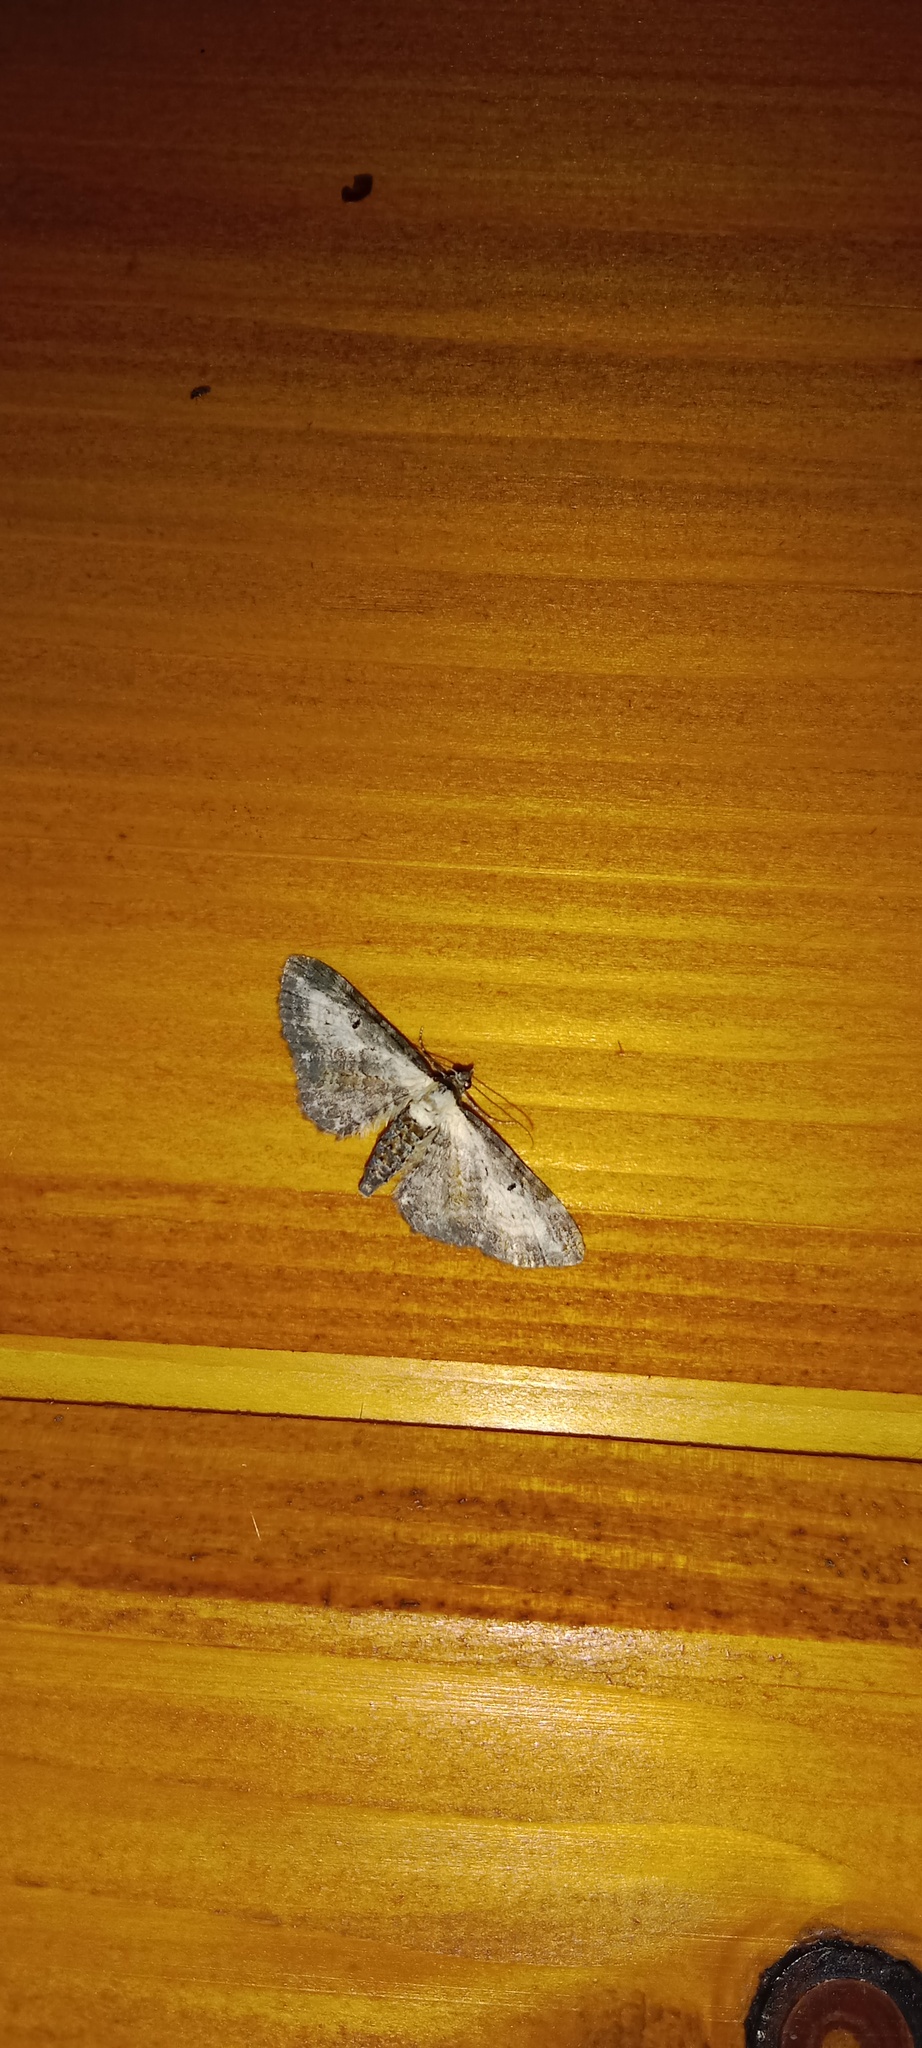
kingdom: Animalia
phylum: Arthropoda
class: Insecta
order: Lepidoptera
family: Geometridae
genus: Eupithecia
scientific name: Eupithecia succenturiata
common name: Bordered pug
